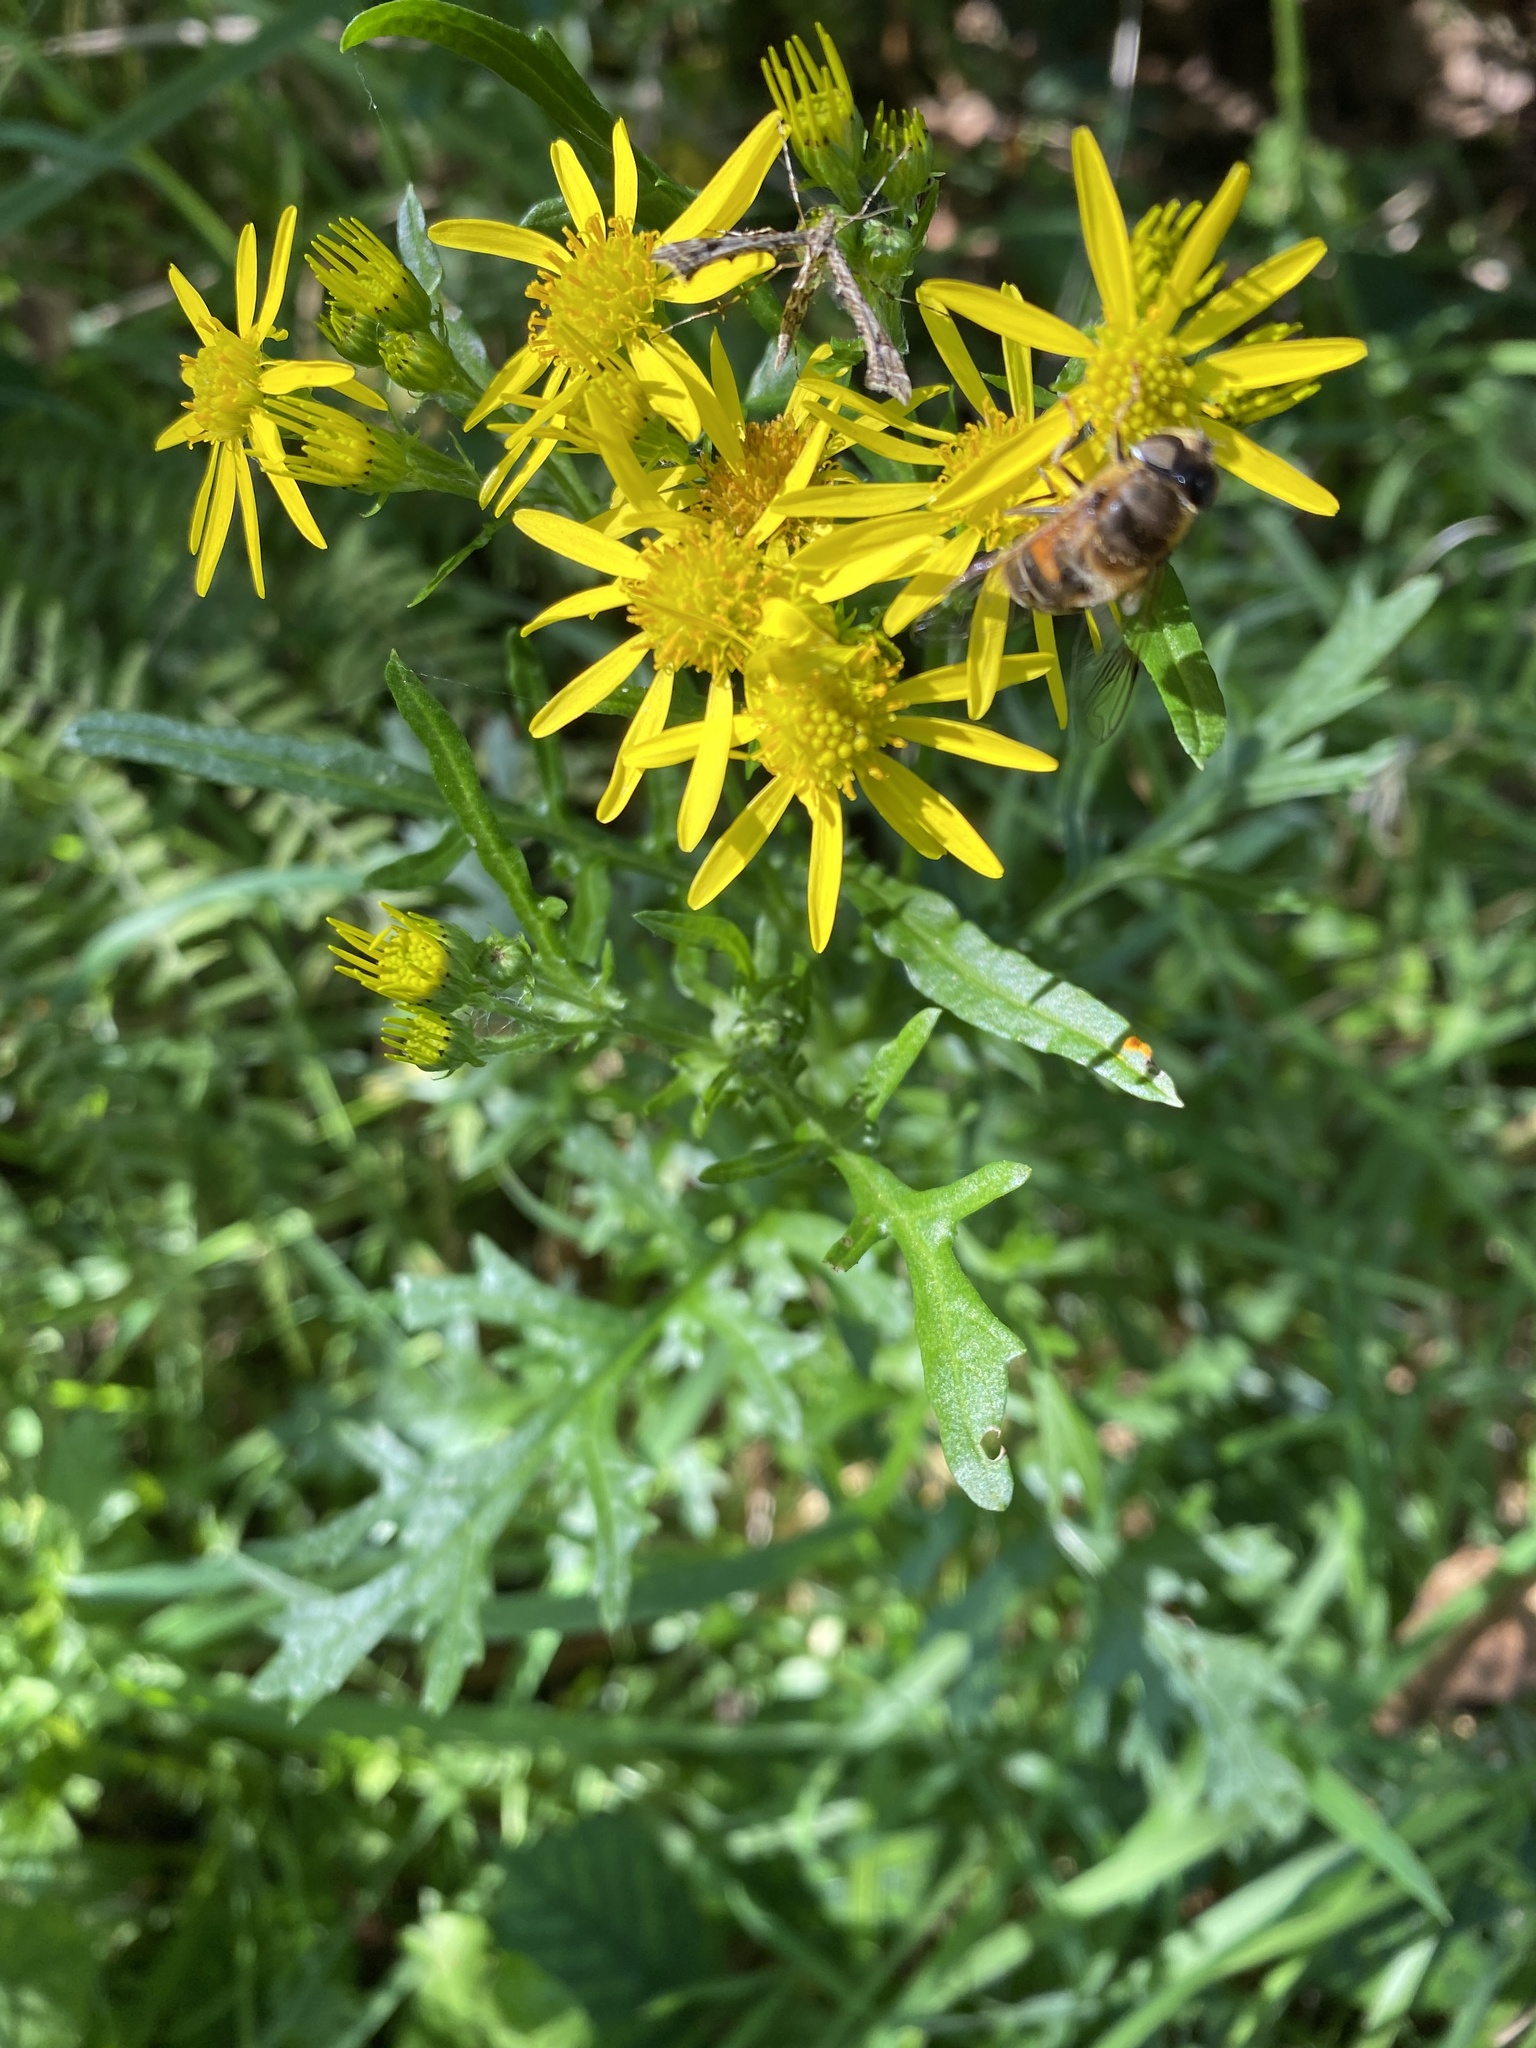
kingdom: Plantae
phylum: Tracheophyta
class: Magnoliopsida
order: Asterales
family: Asteraceae
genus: Jacobaea
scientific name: Jacobaea vulgaris
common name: Stinking willie
